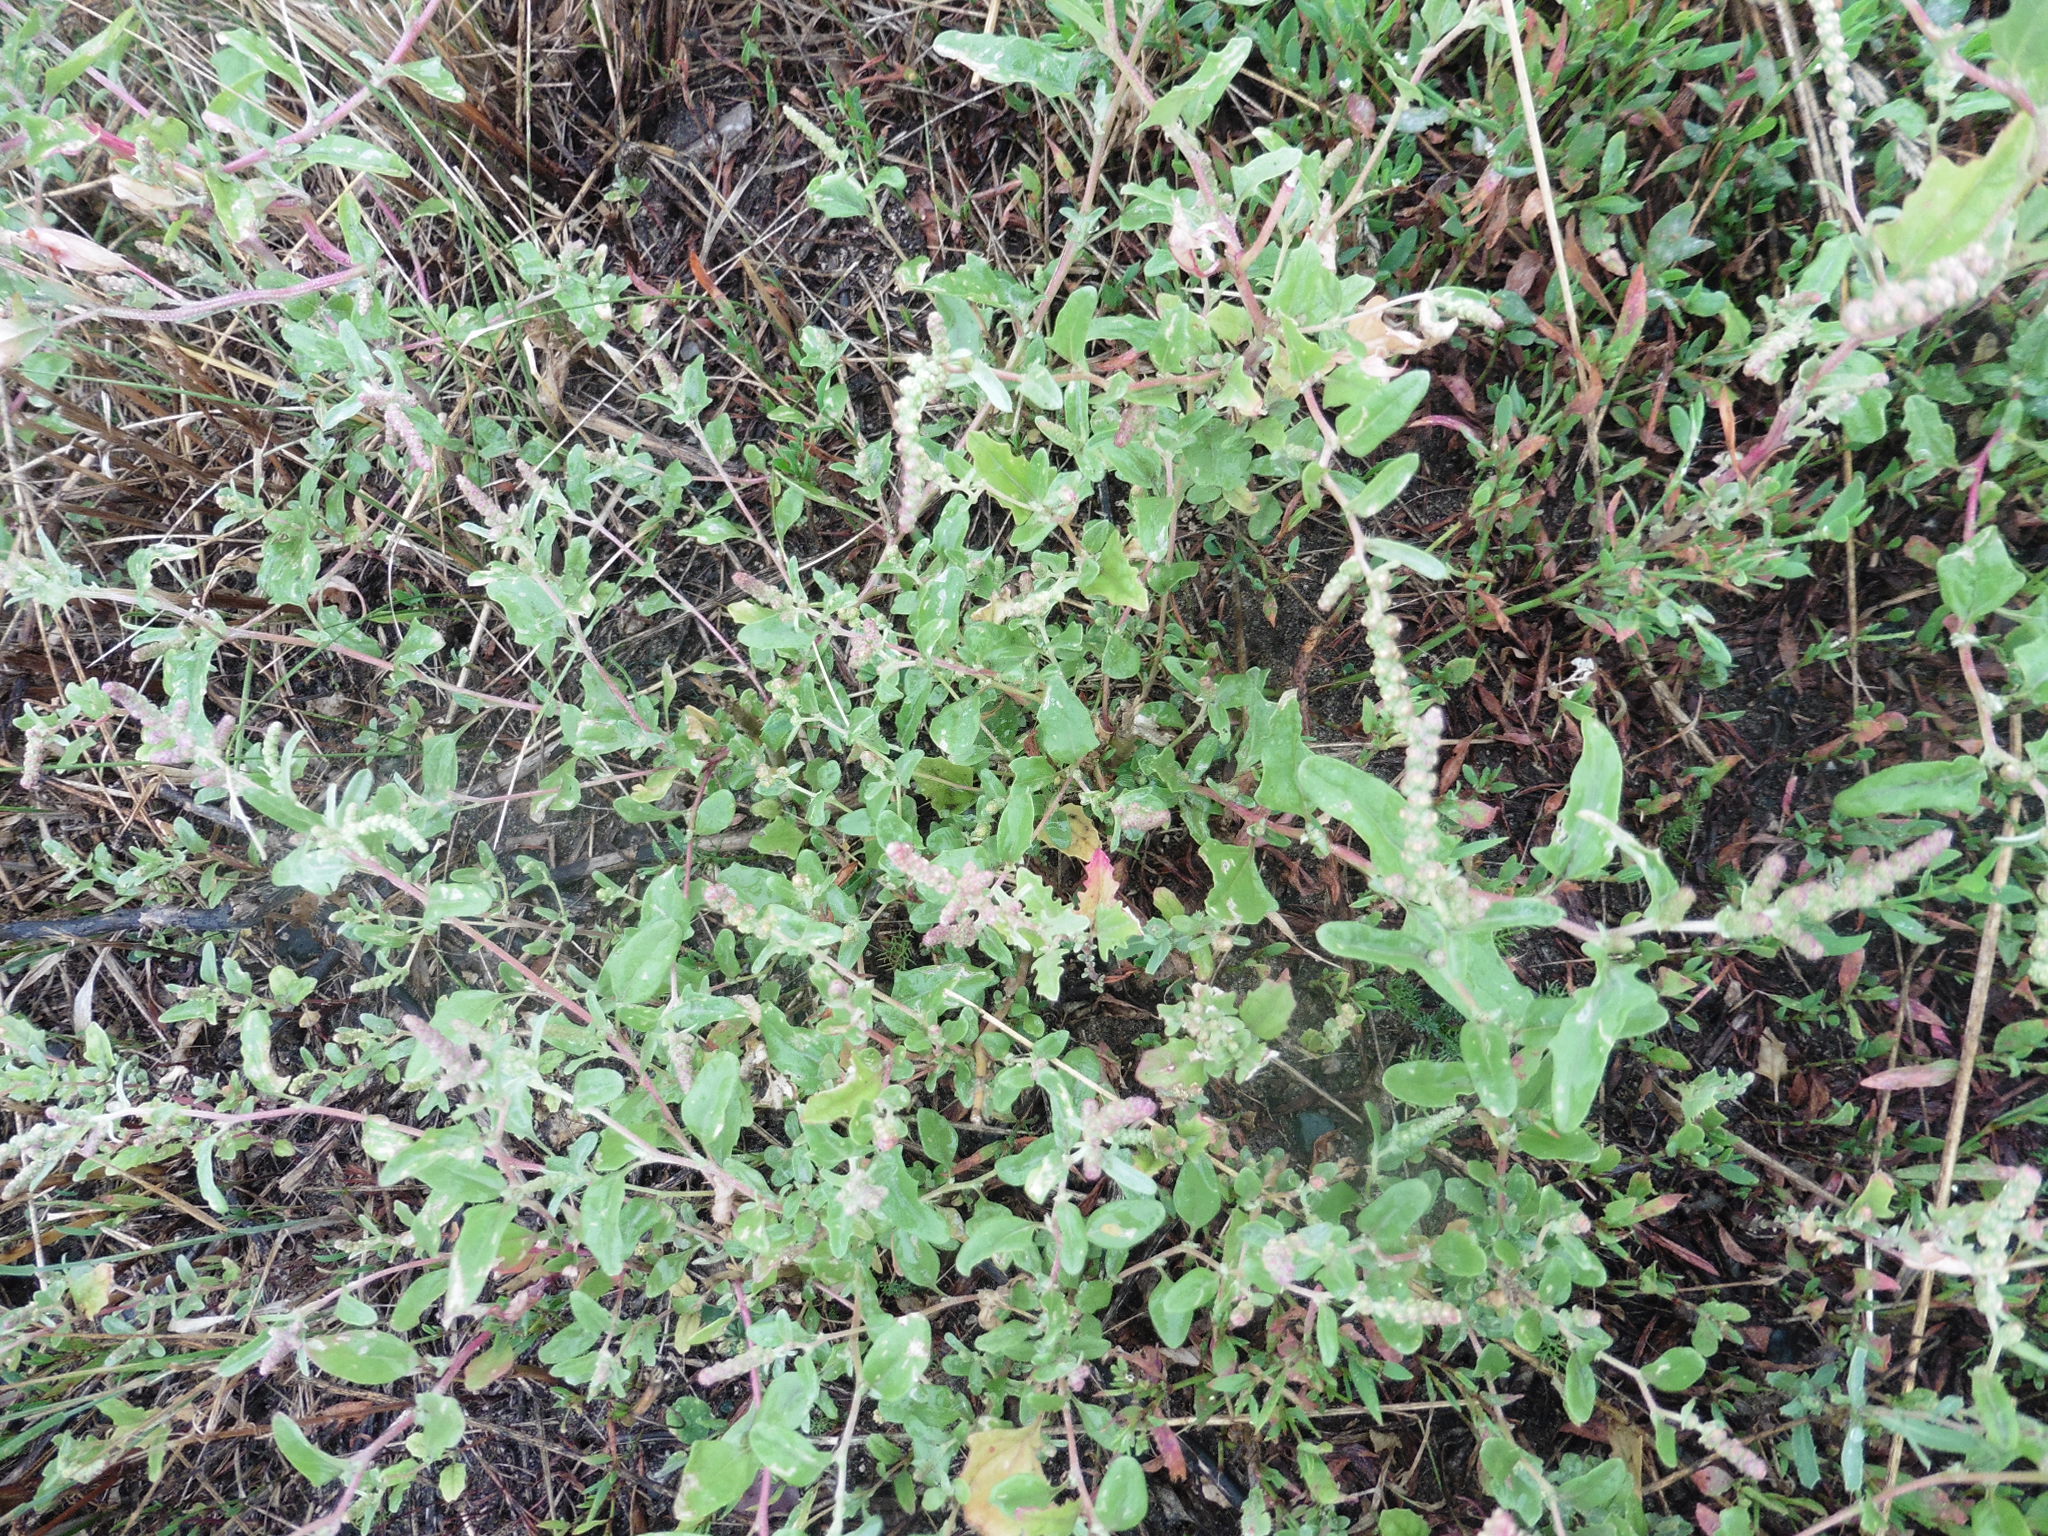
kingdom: Plantae
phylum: Tracheophyta
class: Magnoliopsida
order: Caryophyllales
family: Amaranthaceae
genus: Atriplex
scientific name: Atriplex tatarica
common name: Tatarian orache
